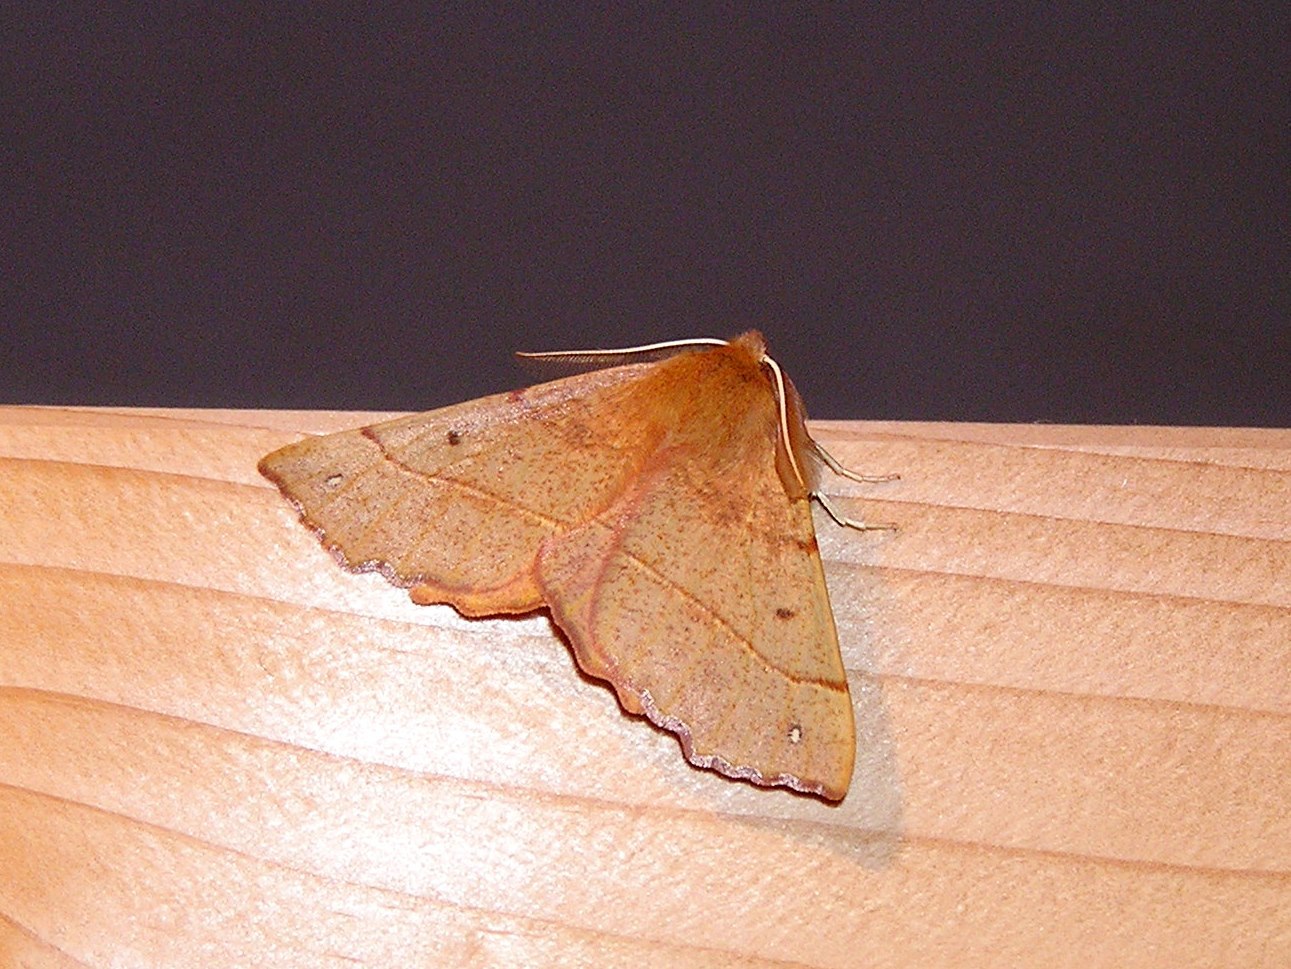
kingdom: Animalia
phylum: Arthropoda
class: Insecta
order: Lepidoptera
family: Geometridae
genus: Colotois
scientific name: Colotois pennaria
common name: Feathered thorn
